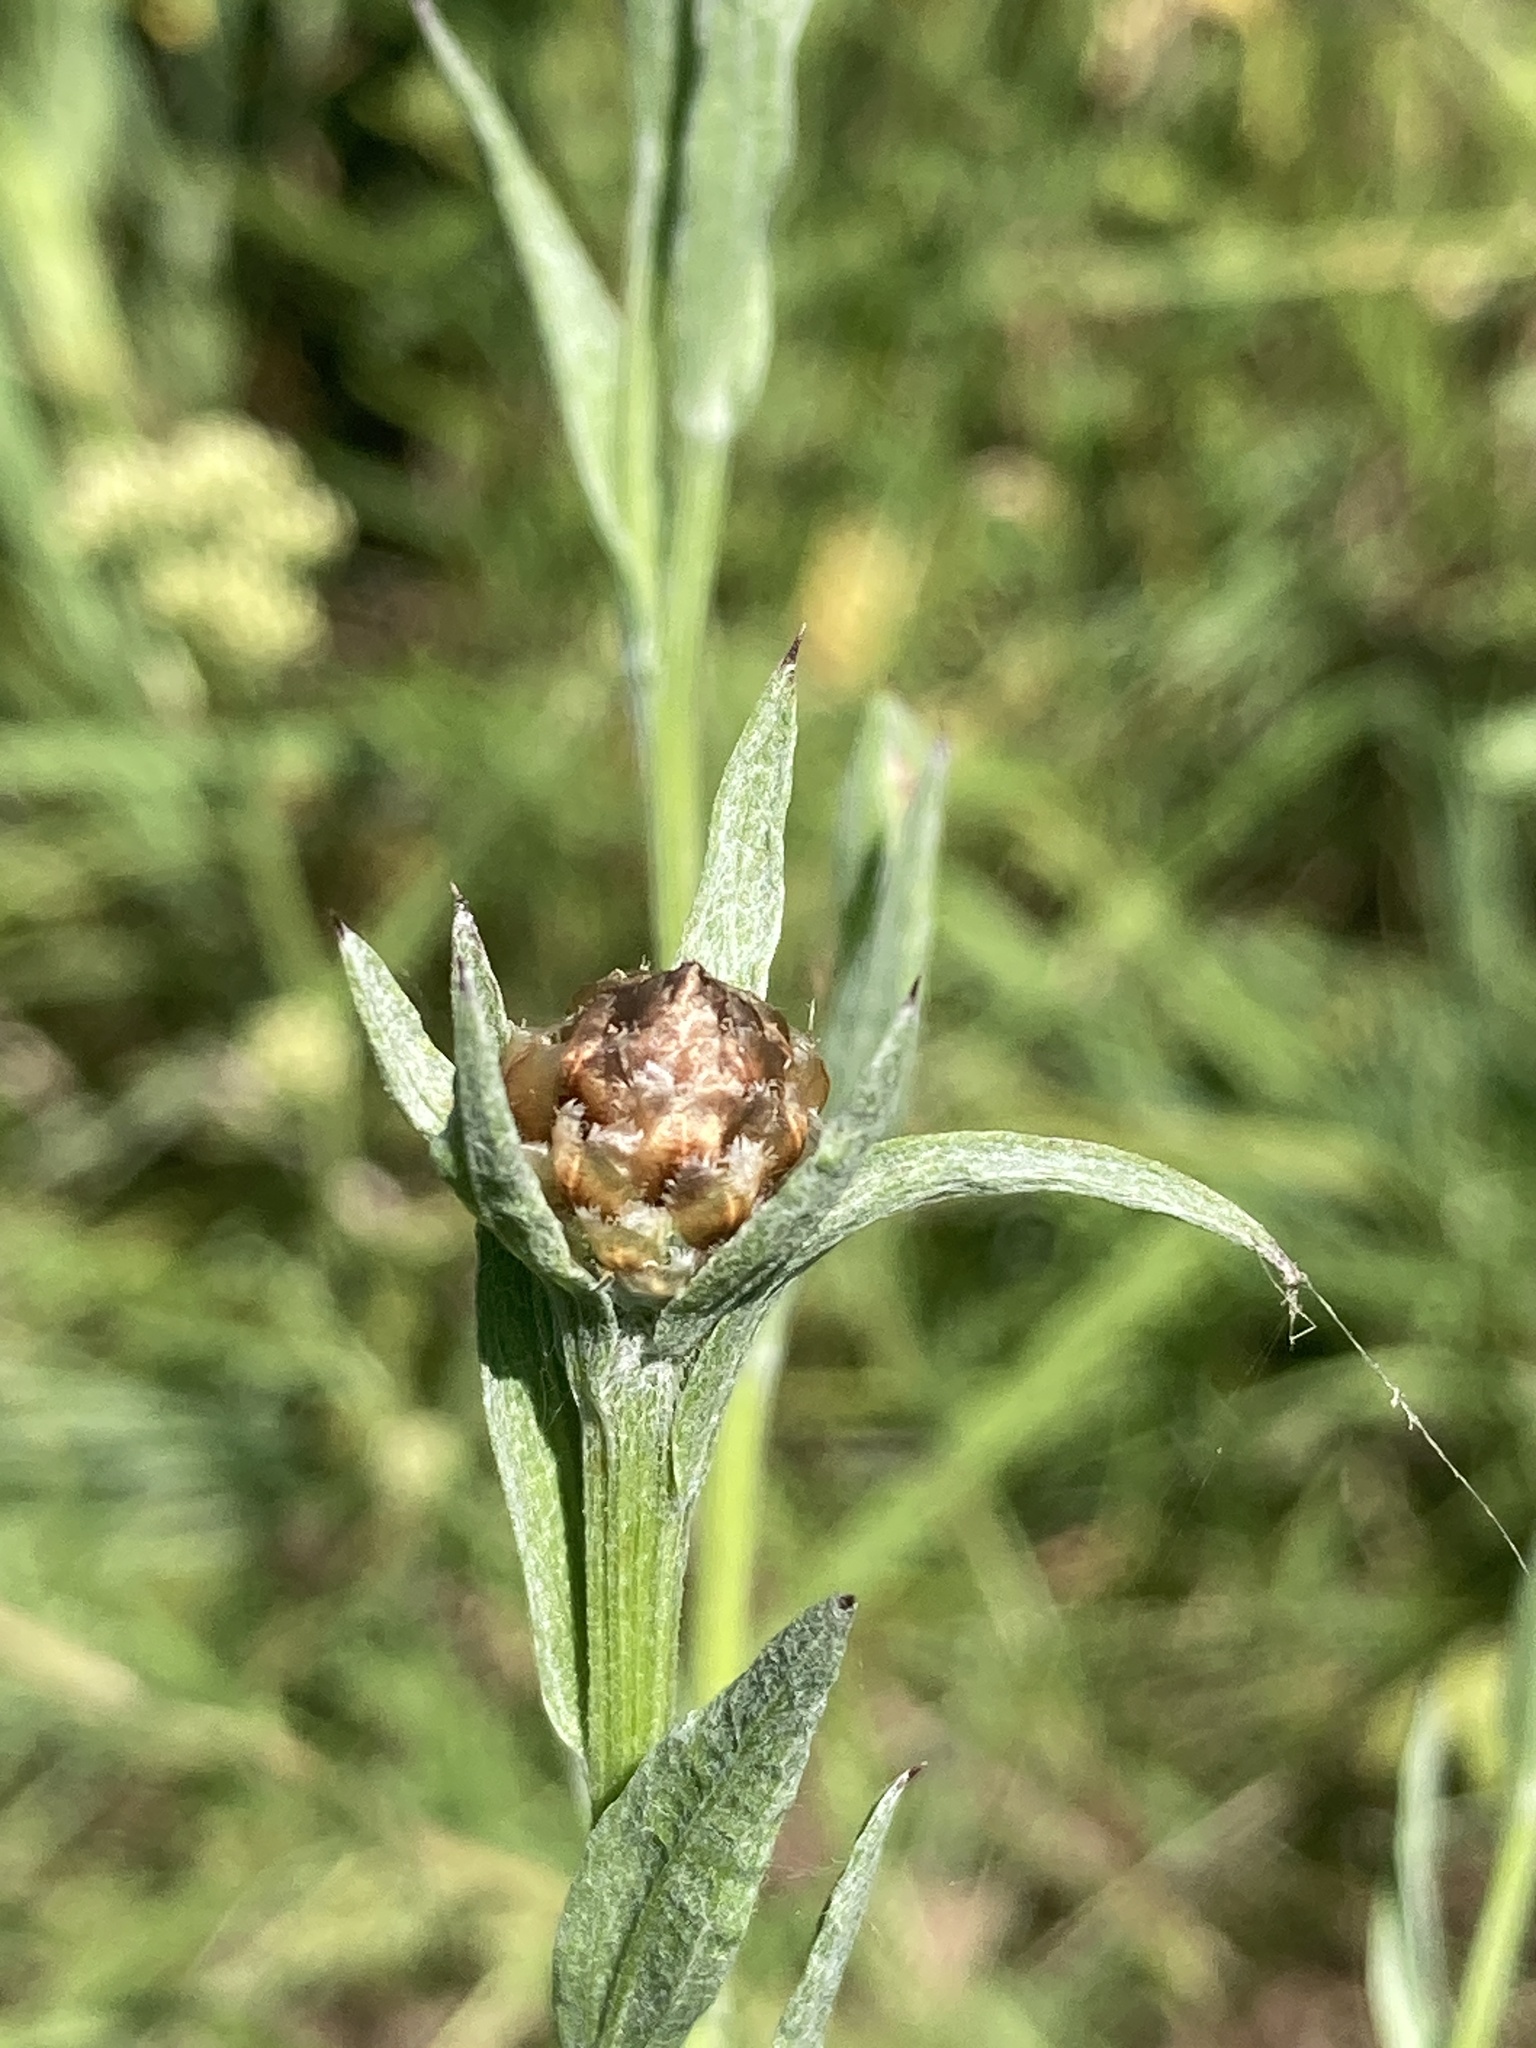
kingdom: Plantae
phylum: Tracheophyta
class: Magnoliopsida
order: Asterales
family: Asteraceae
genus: Centaurea
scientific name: Centaurea jacea
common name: Brown knapweed
